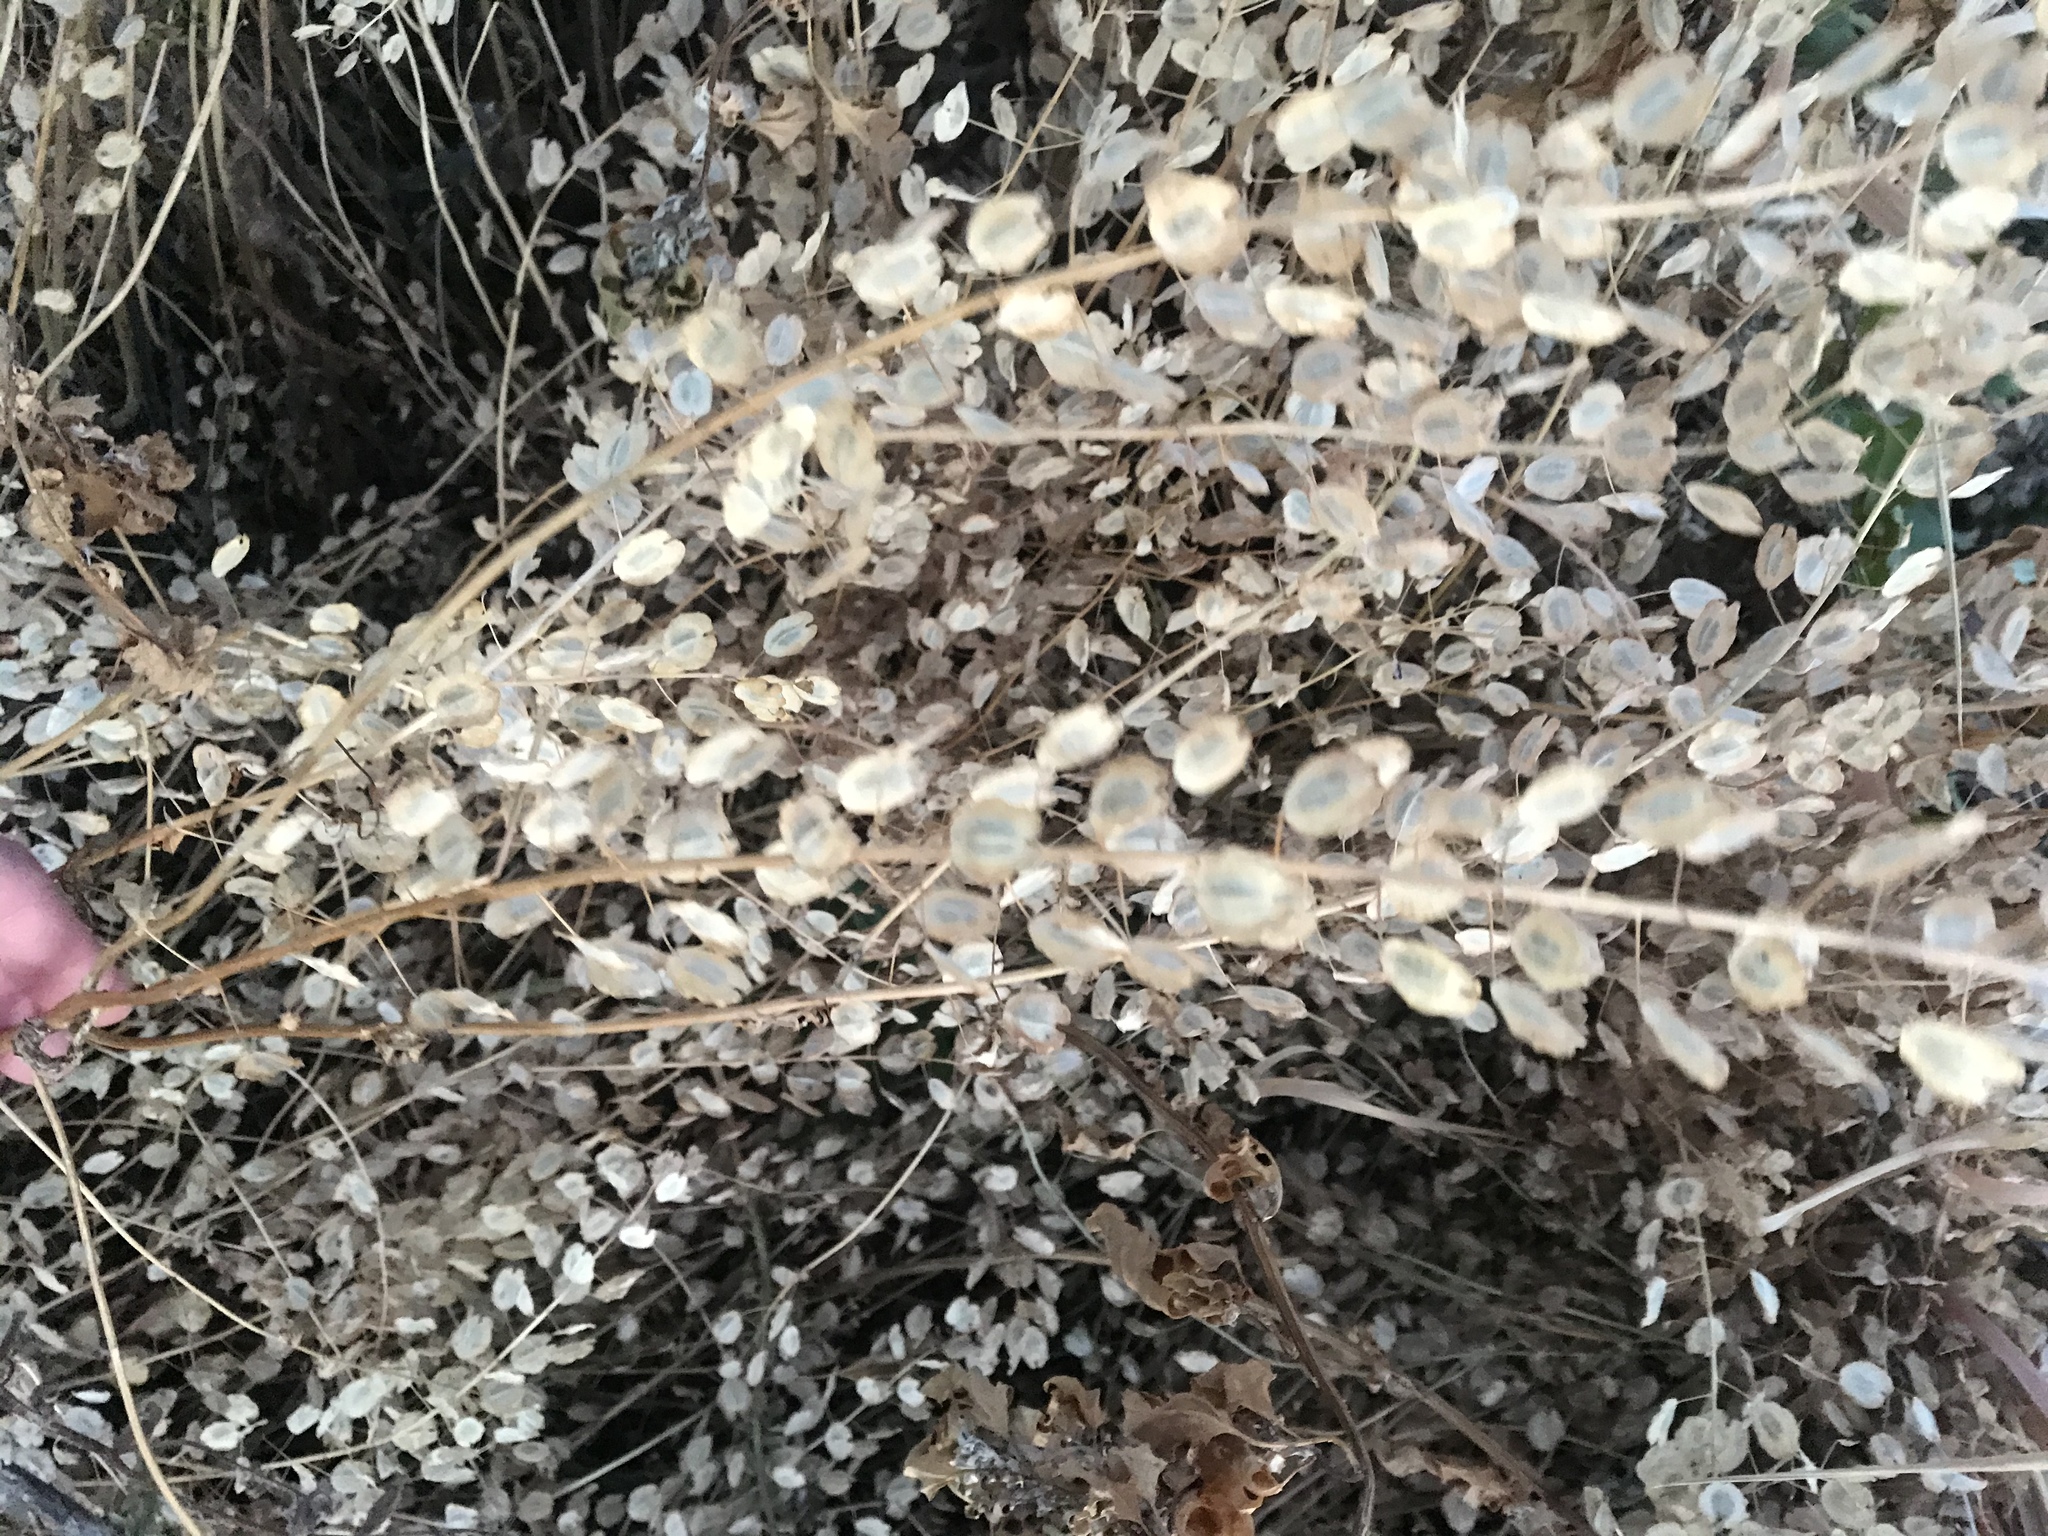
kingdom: Plantae
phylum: Tracheophyta
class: Magnoliopsida
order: Brassicales
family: Brassicaceae
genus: Thlaspi
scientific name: Thlaspi arvense
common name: Field pennycress
